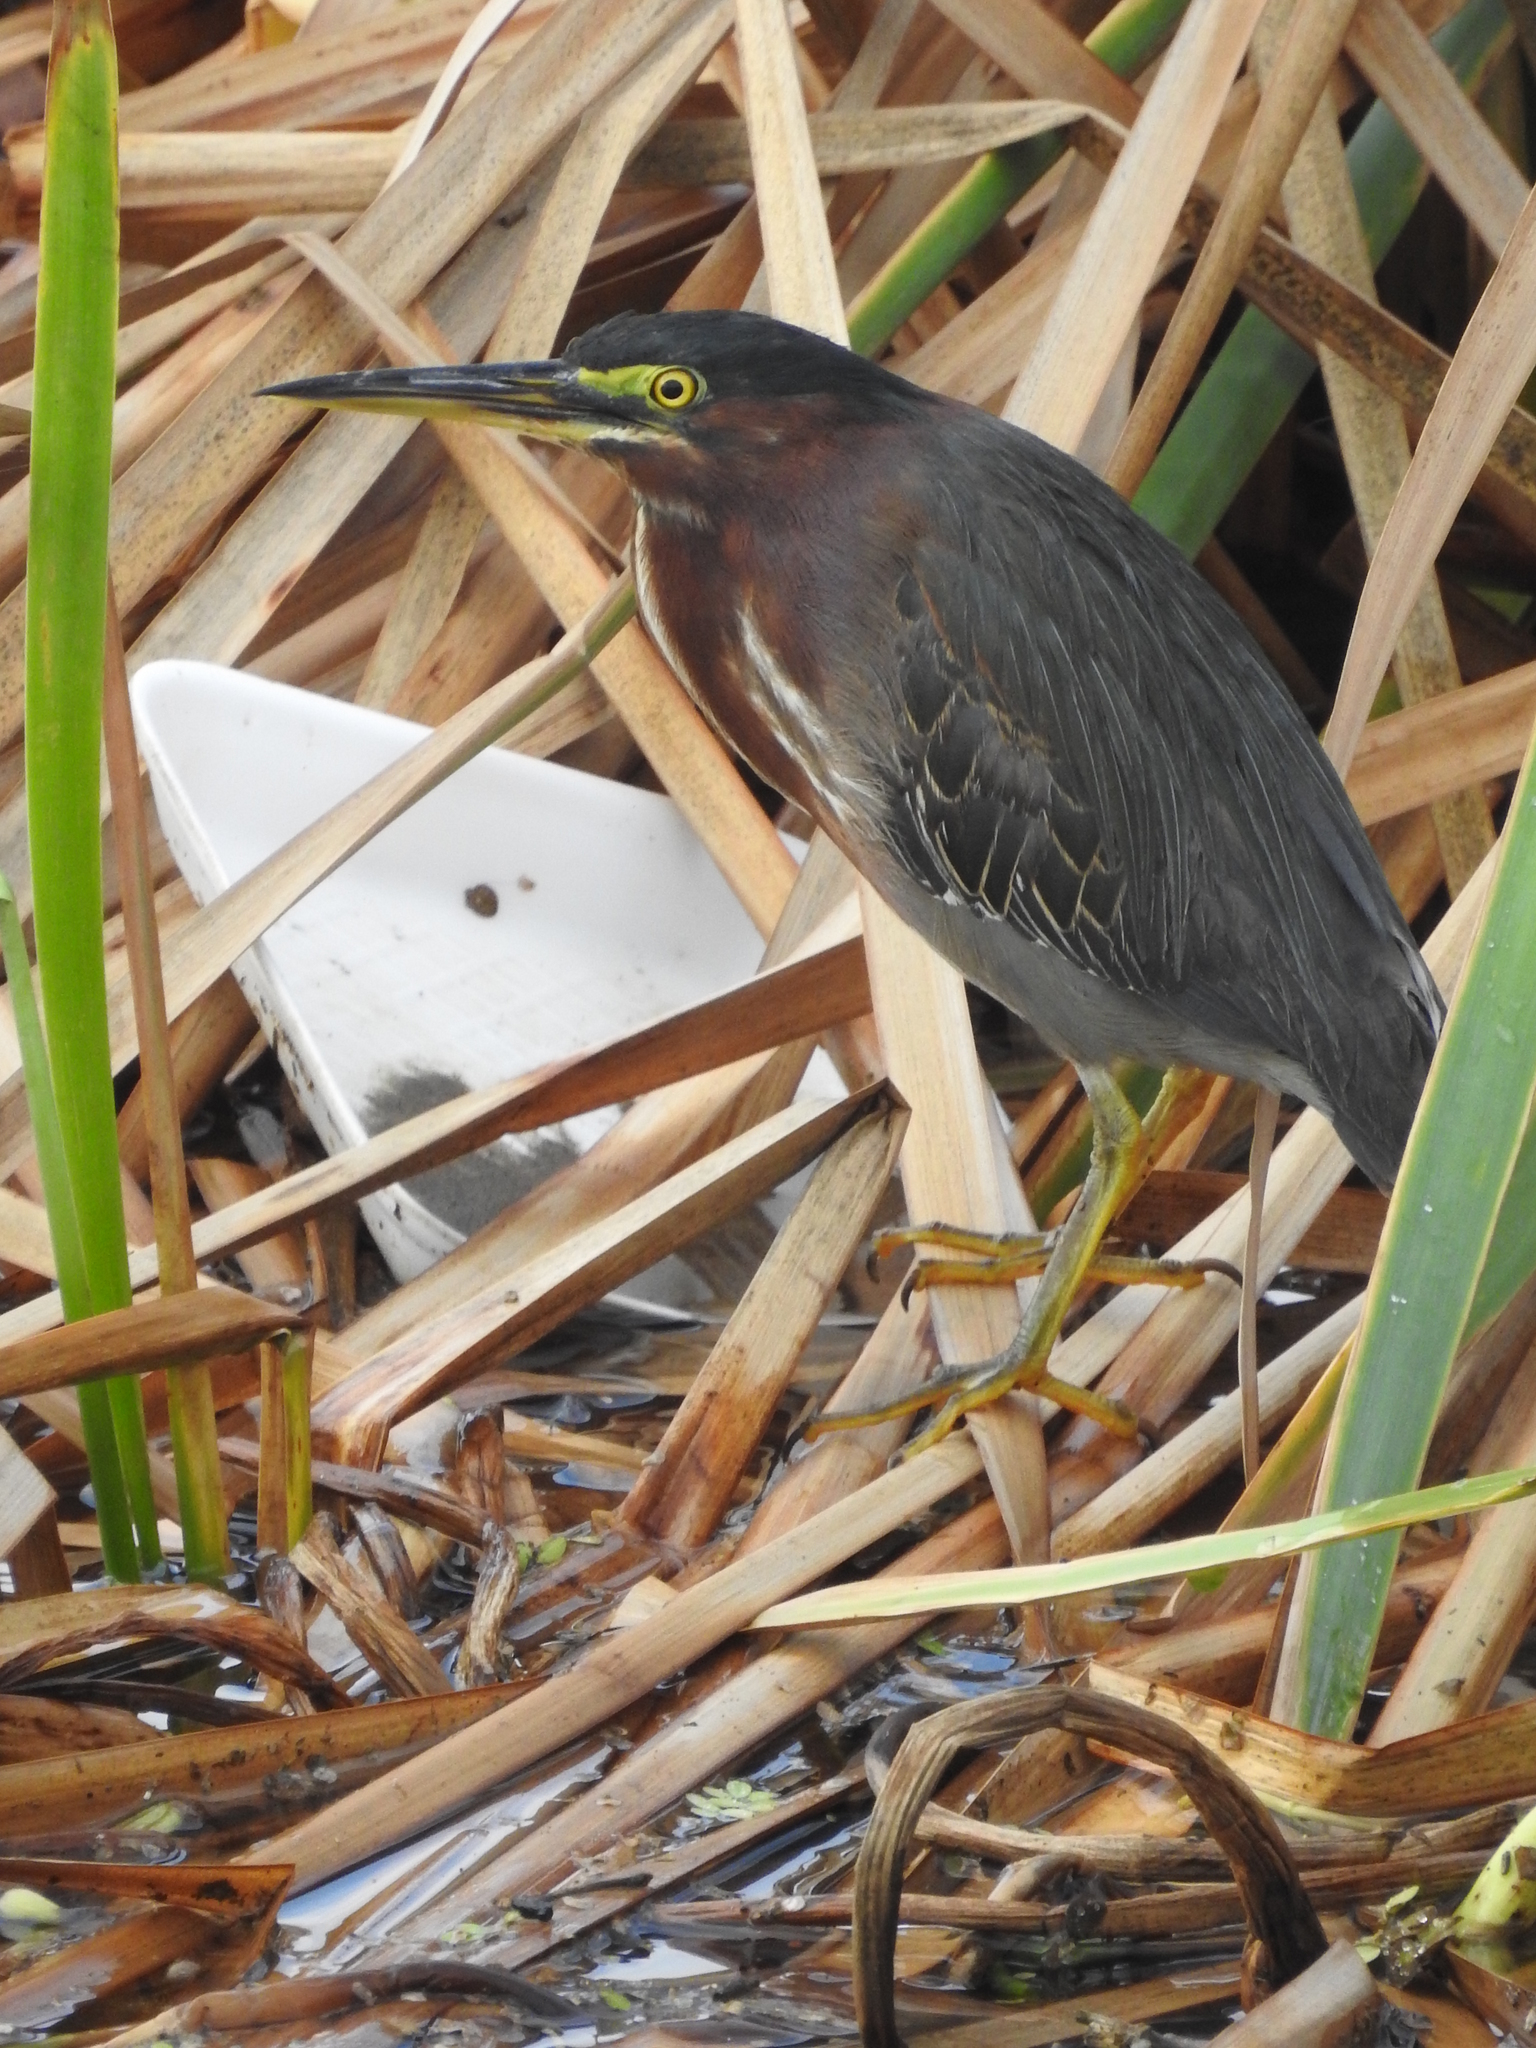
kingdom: Animalia
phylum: Chordata
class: Aves
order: Pelecaniformes
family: Ardeidae
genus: Butorides
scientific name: Butorides virescens
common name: Green heron
